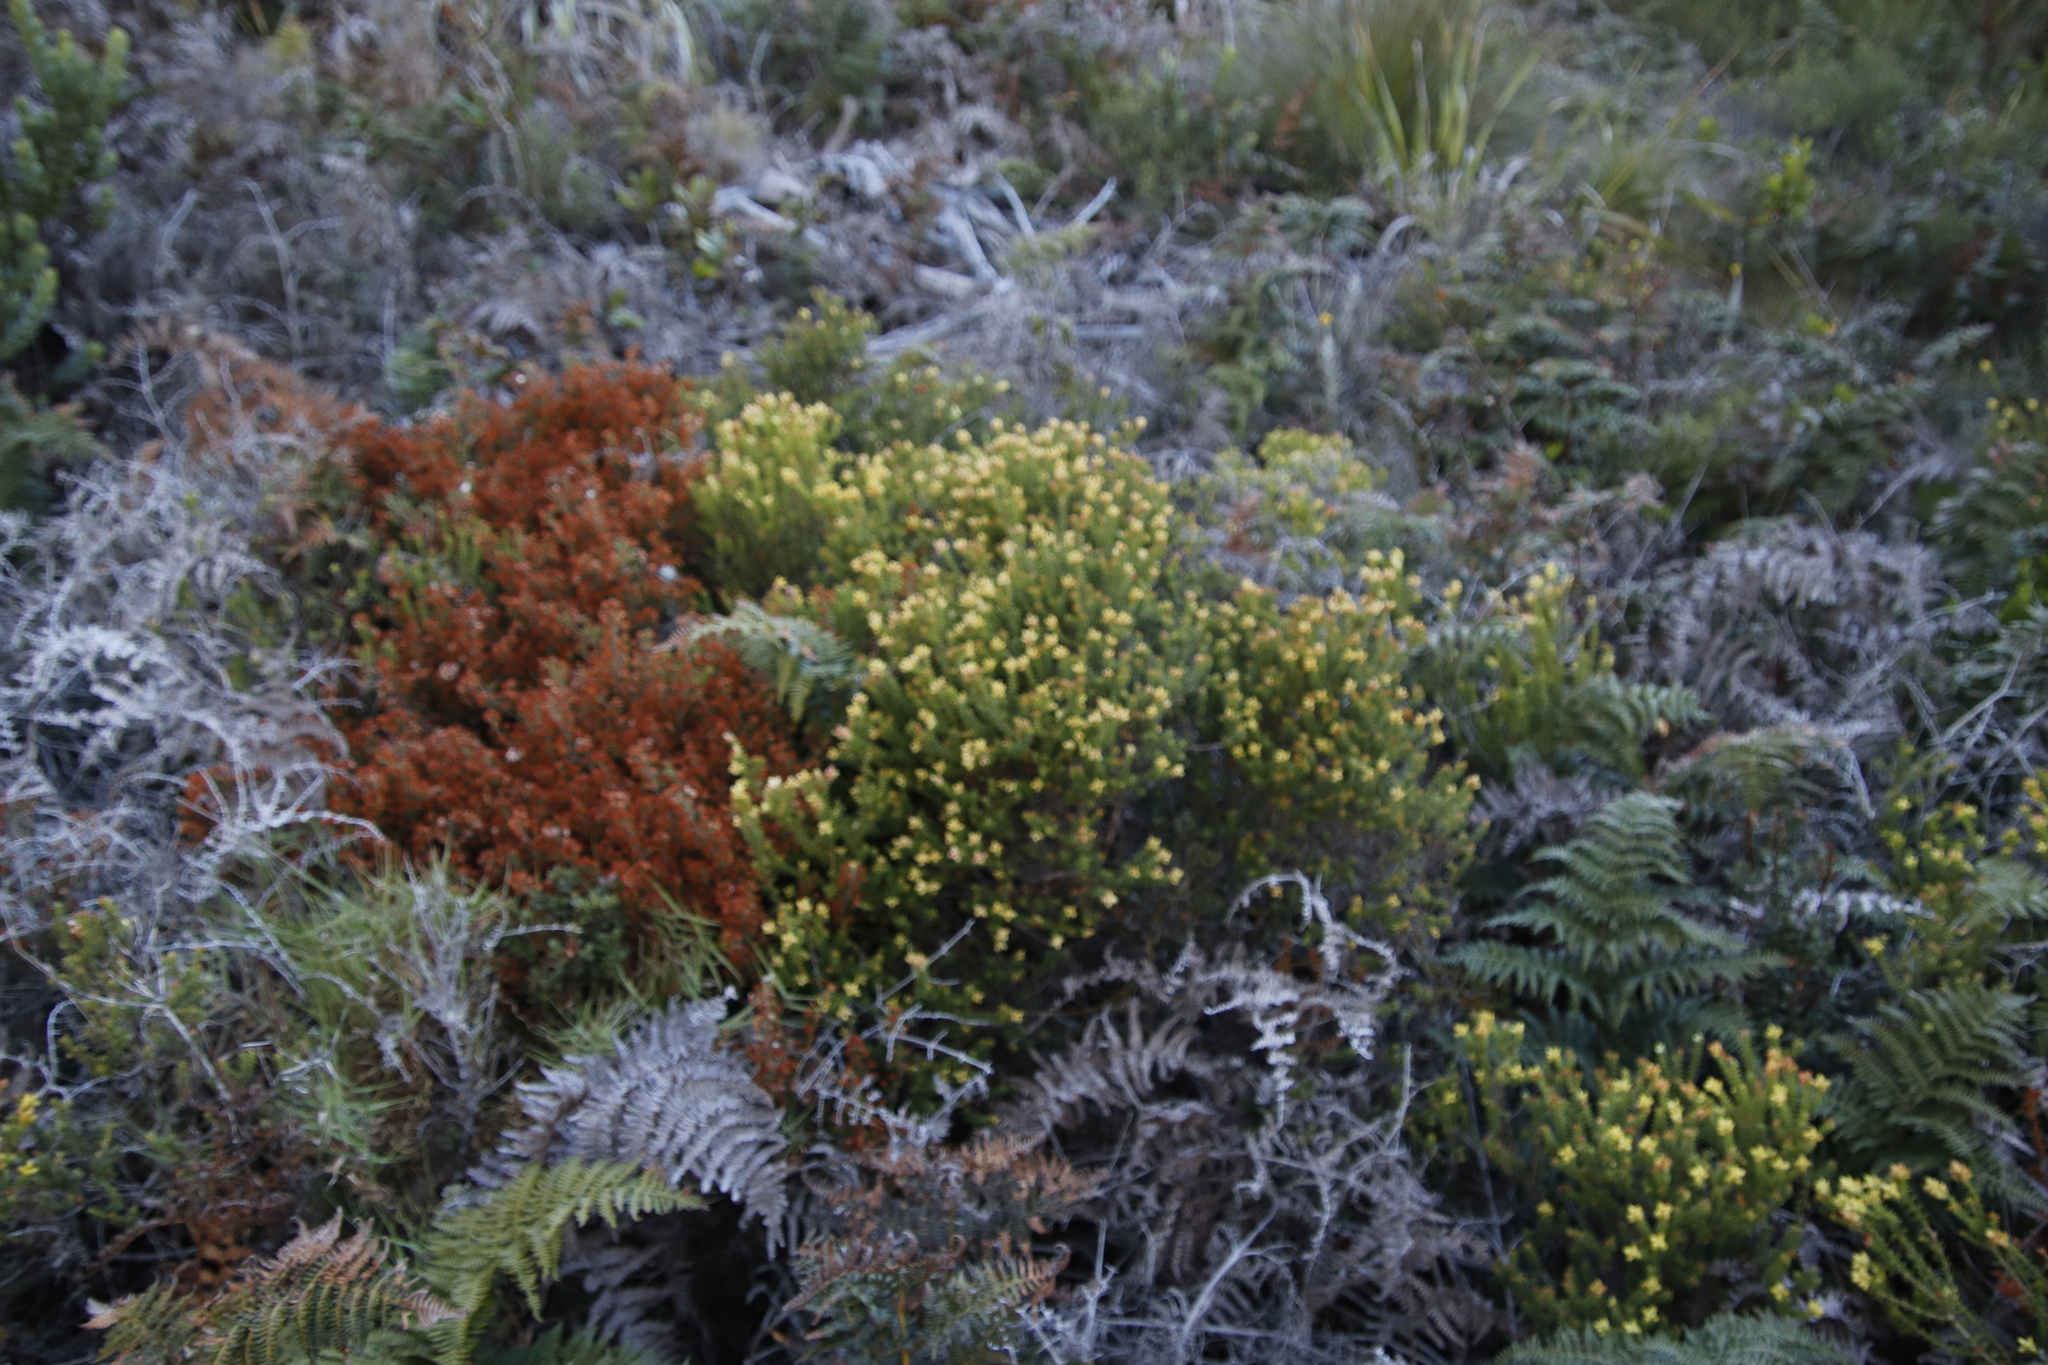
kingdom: Plantae
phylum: Tracheophyta
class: Magnoliopsida
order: Myrtales
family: Penaeaceae
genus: Penaea
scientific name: Penaea mucronata
